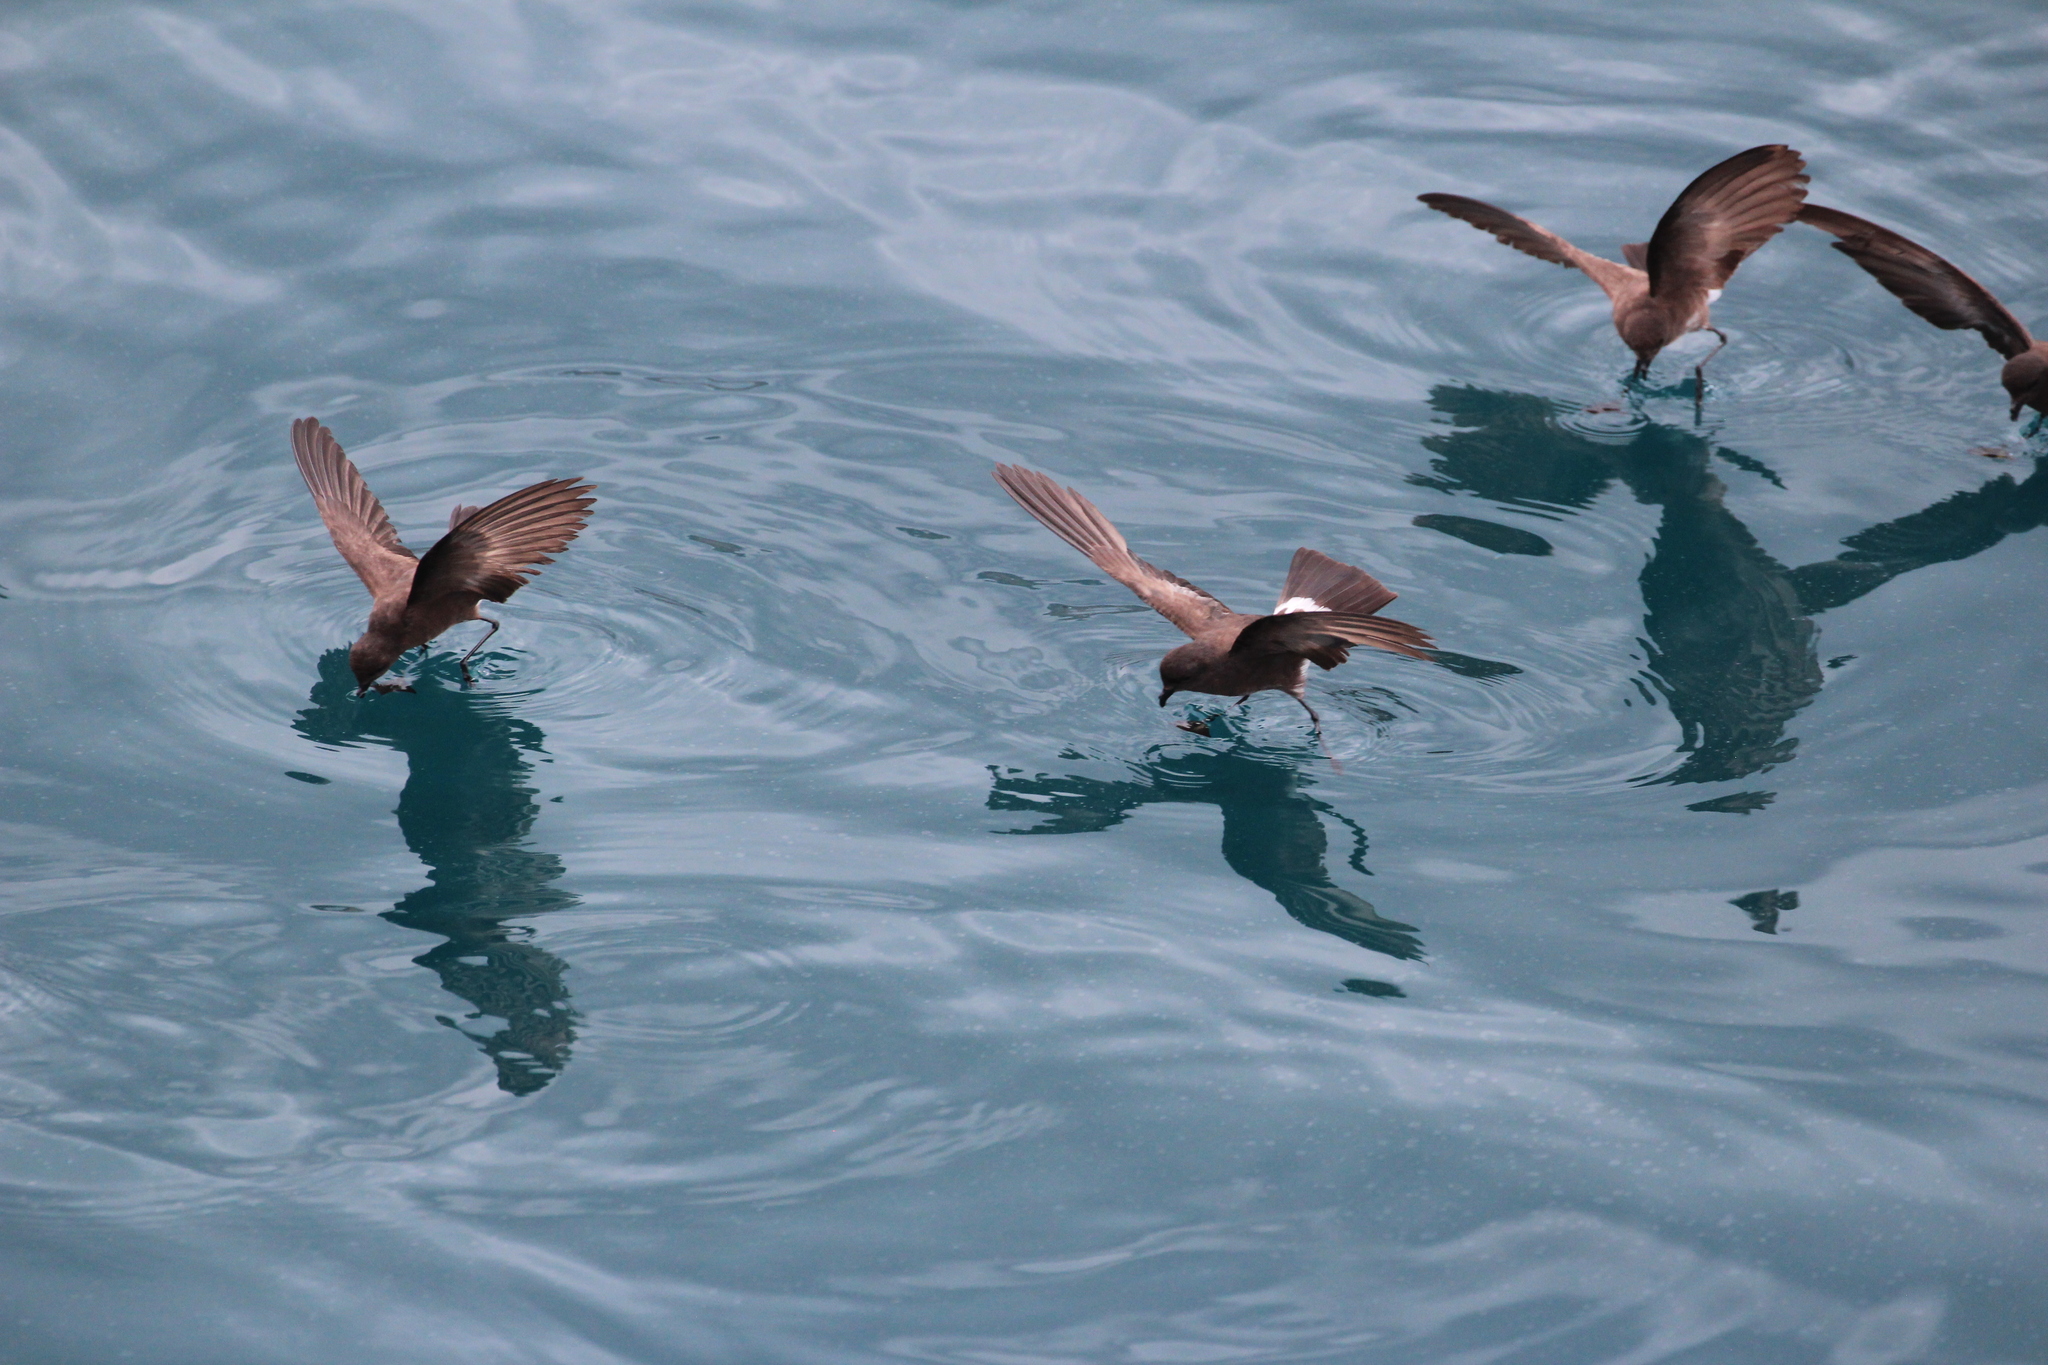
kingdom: Animalia
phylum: Chordata
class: Aves
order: Procellariiformes
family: Hydrobatidae
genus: Oceanites
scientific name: Oceanites gracilis
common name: Elliot's storm-petrel
